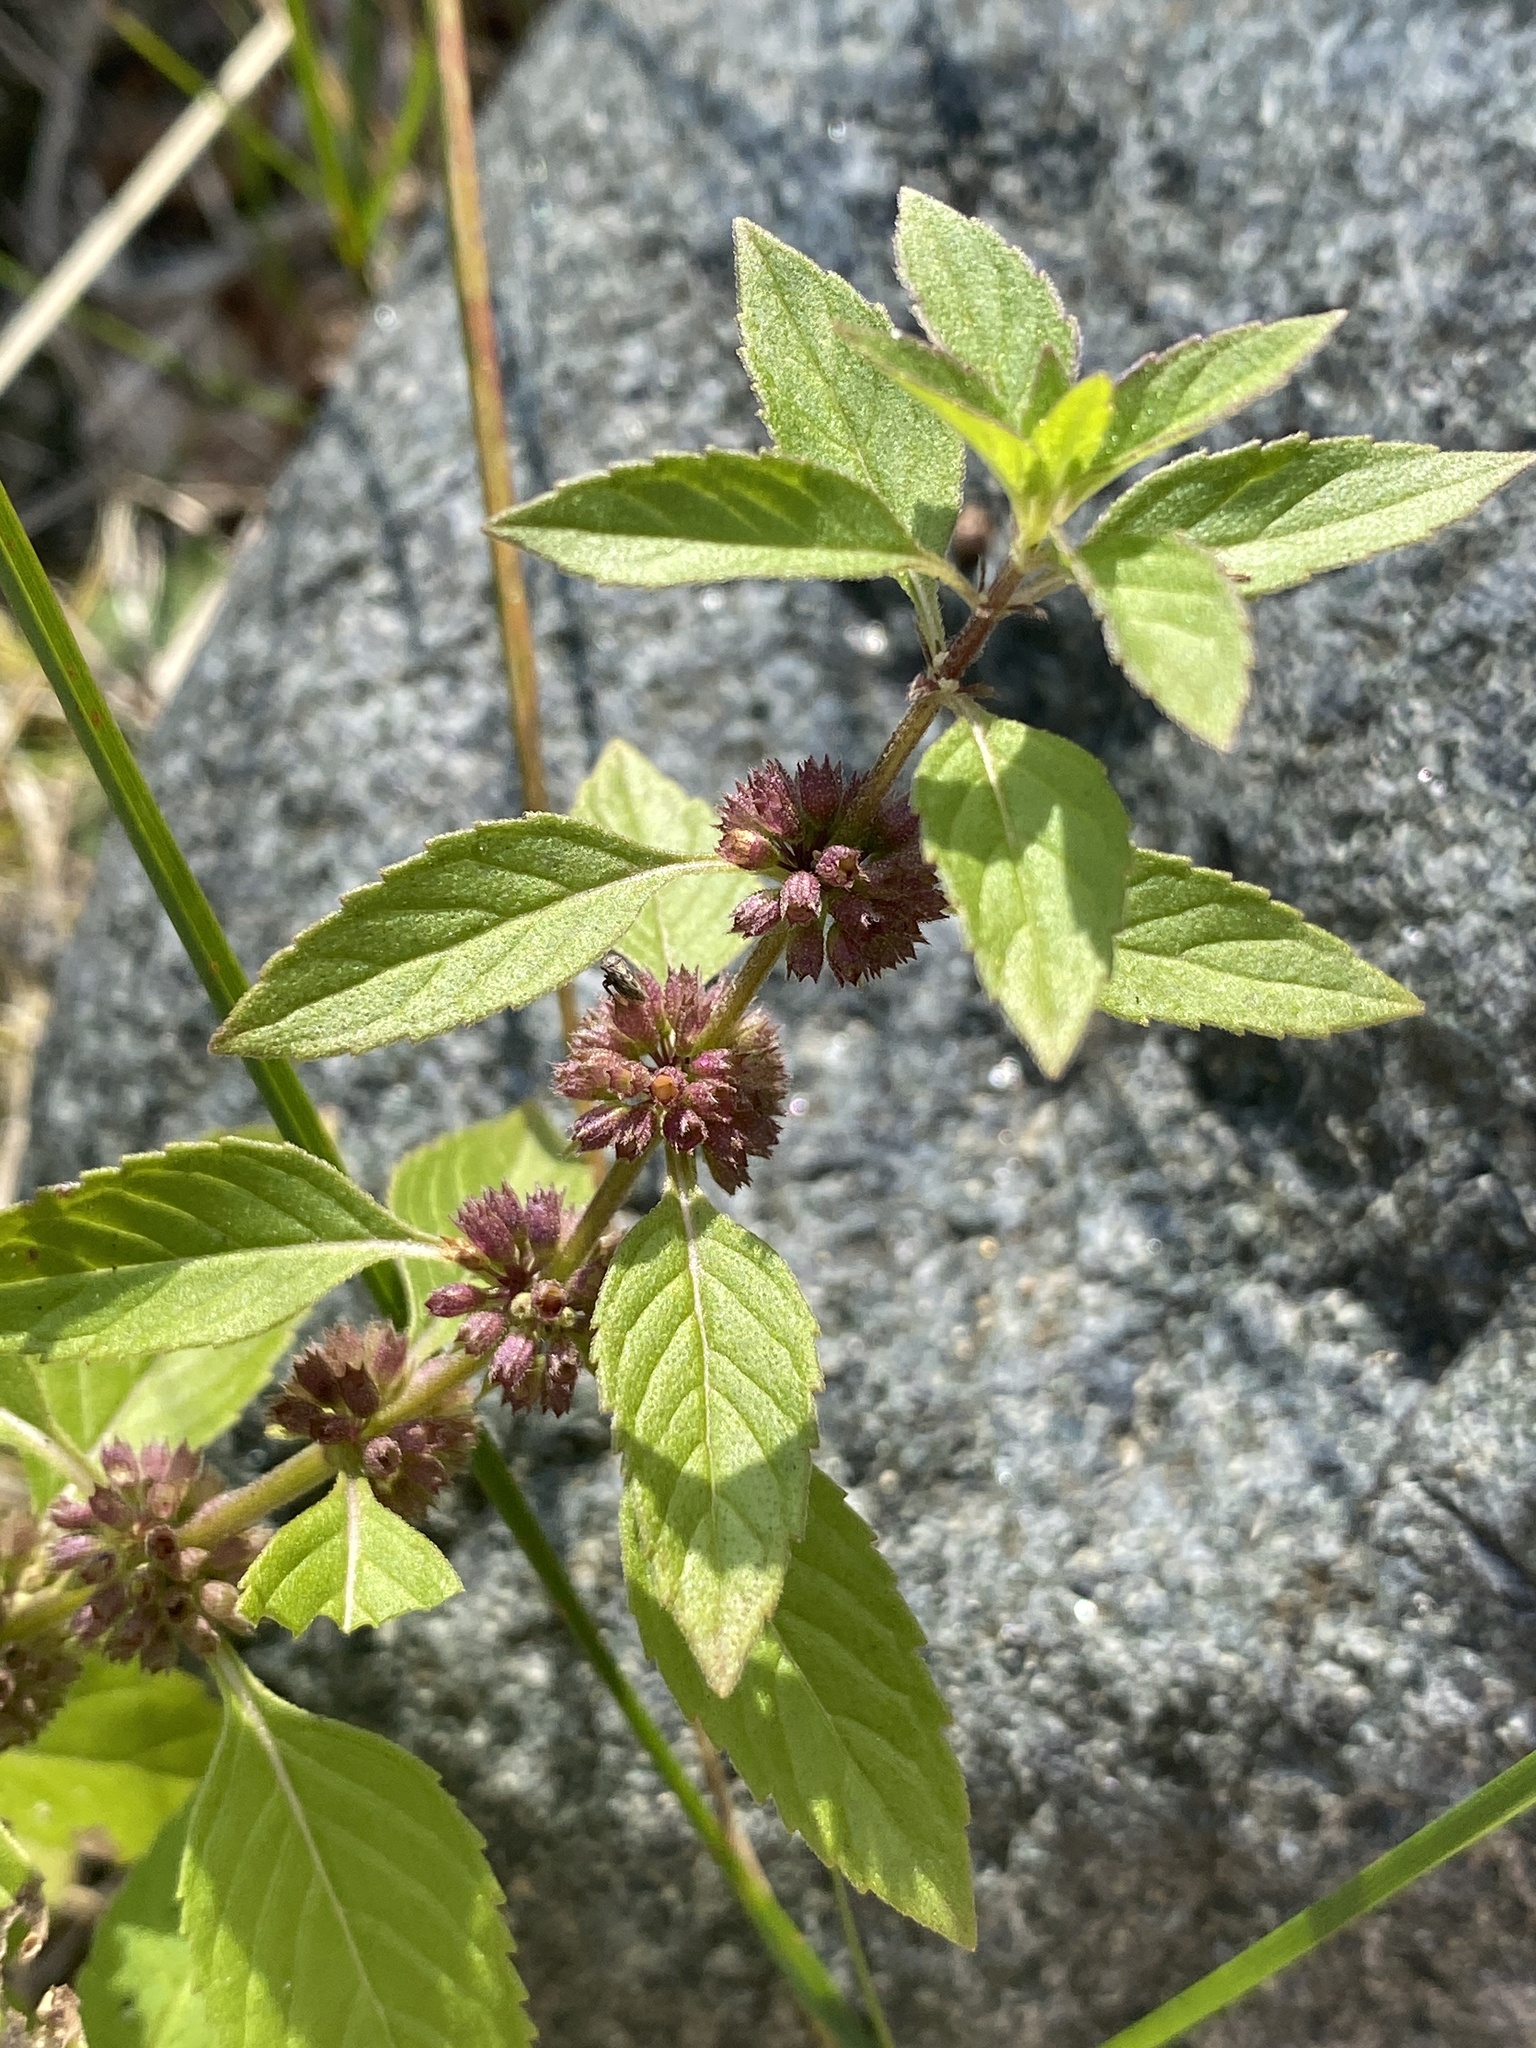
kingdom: Plantae
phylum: Tracheophyta
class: Magnoliopsida
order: Lamiales
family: Lamiaceae
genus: Mentha
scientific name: Mentha canadensis
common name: American corn mint
